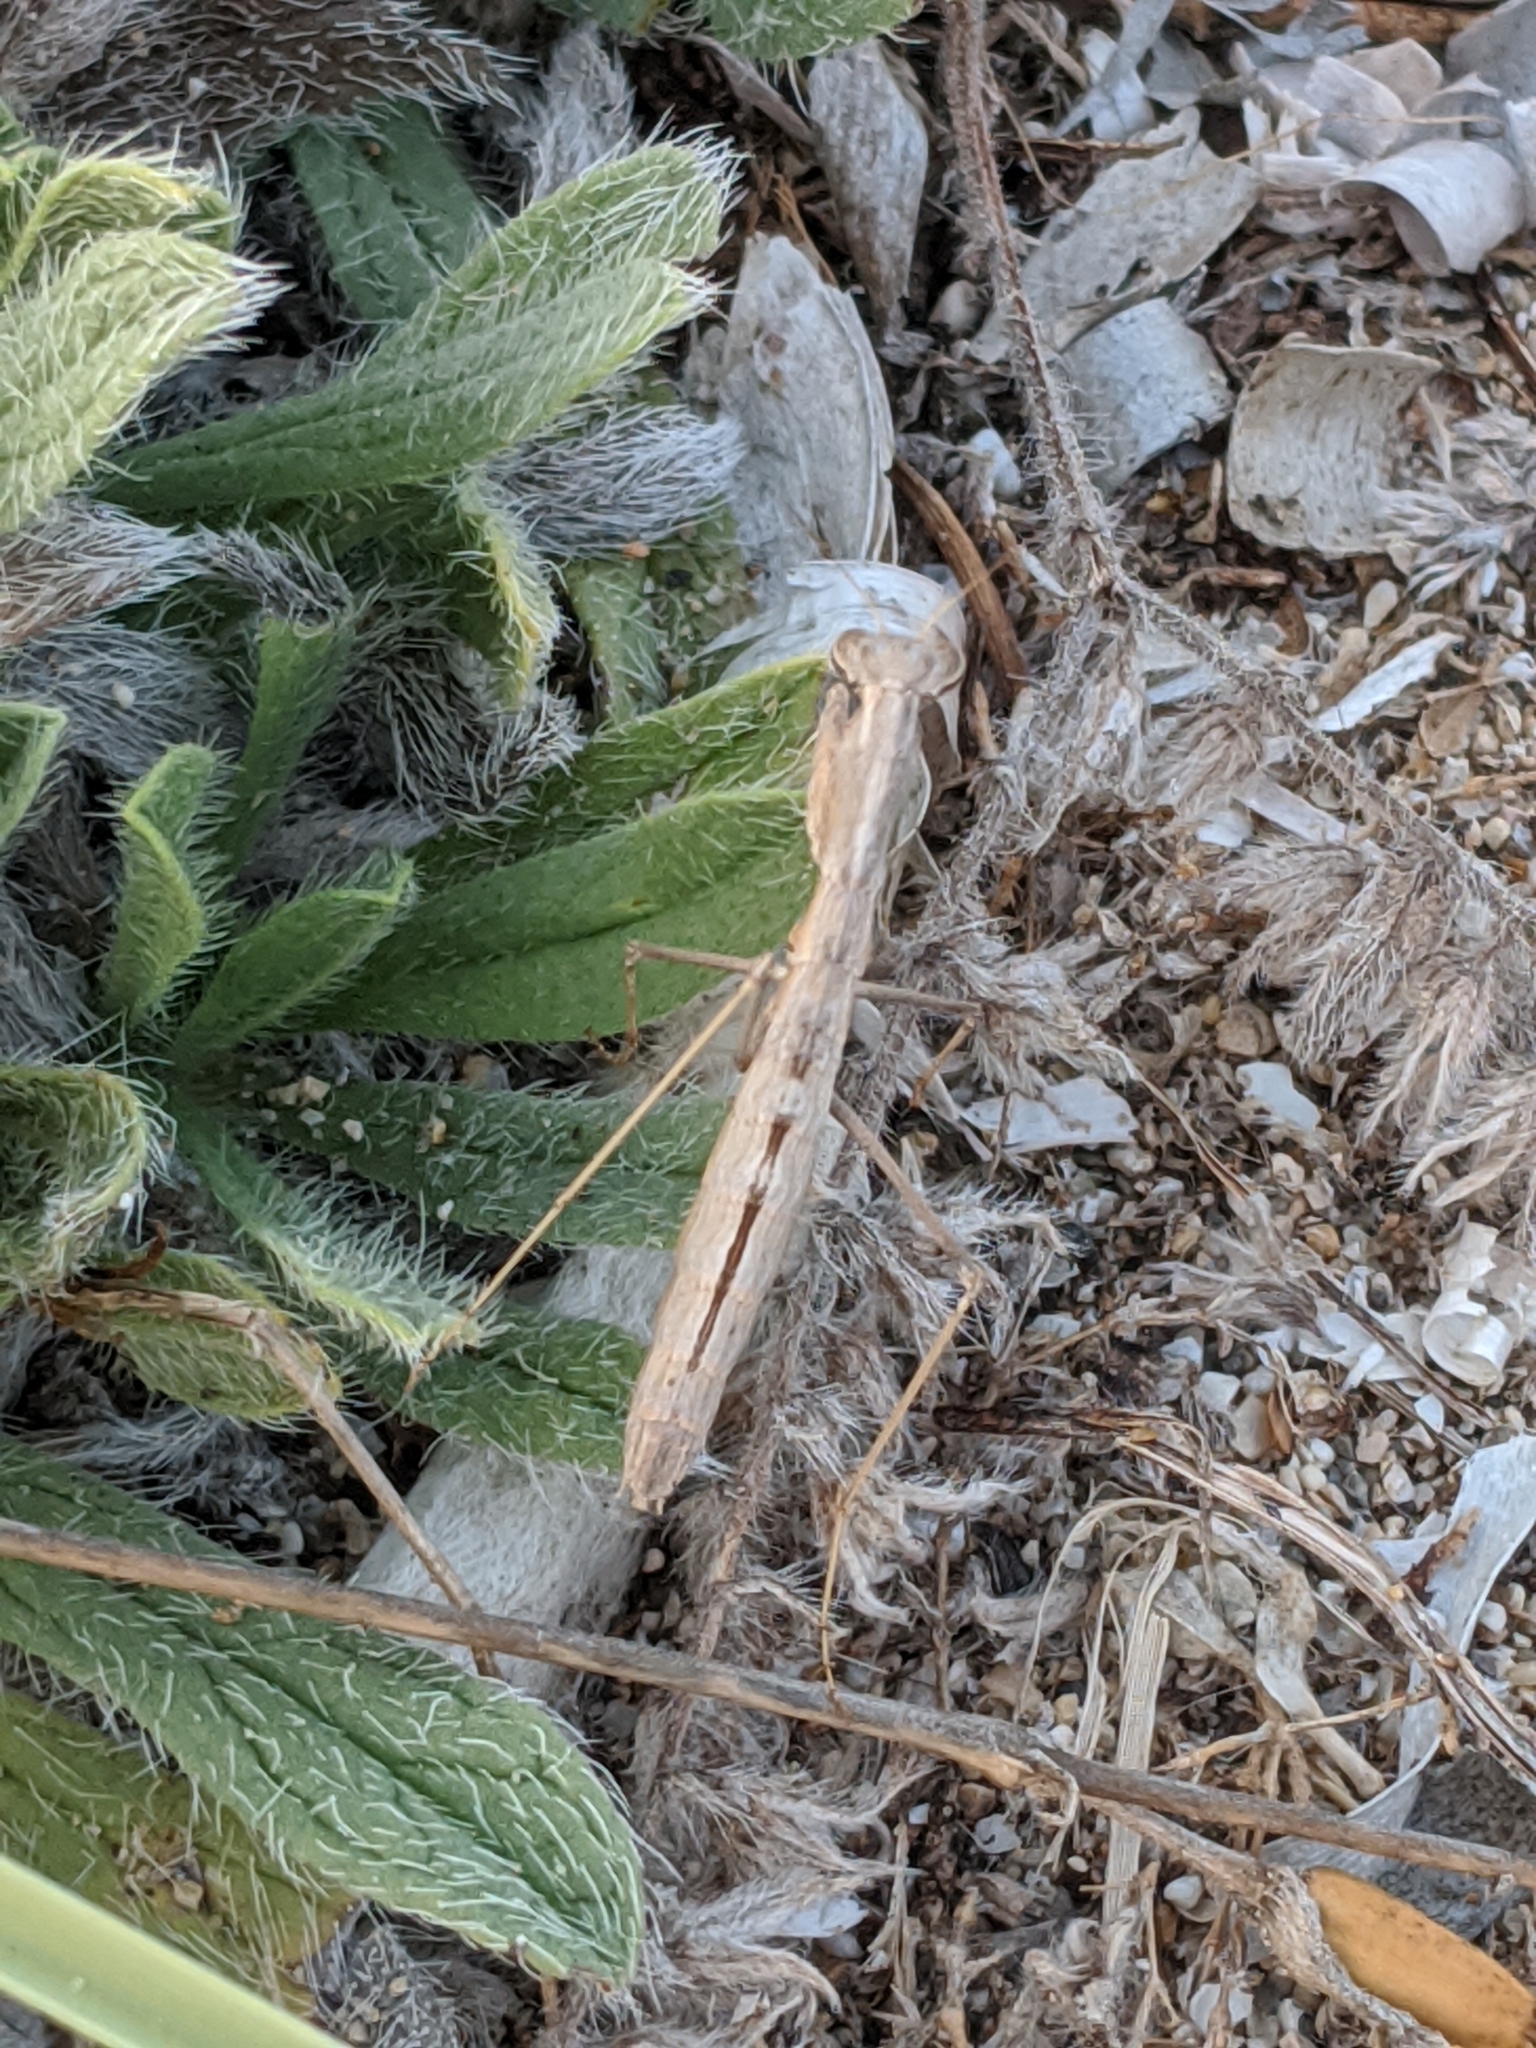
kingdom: Animalia
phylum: Arthropoda
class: Insecta
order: Mantodea
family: Rivetinidae
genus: Geomantis
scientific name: Geomantis larvoides
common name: Wingless ground mantis
